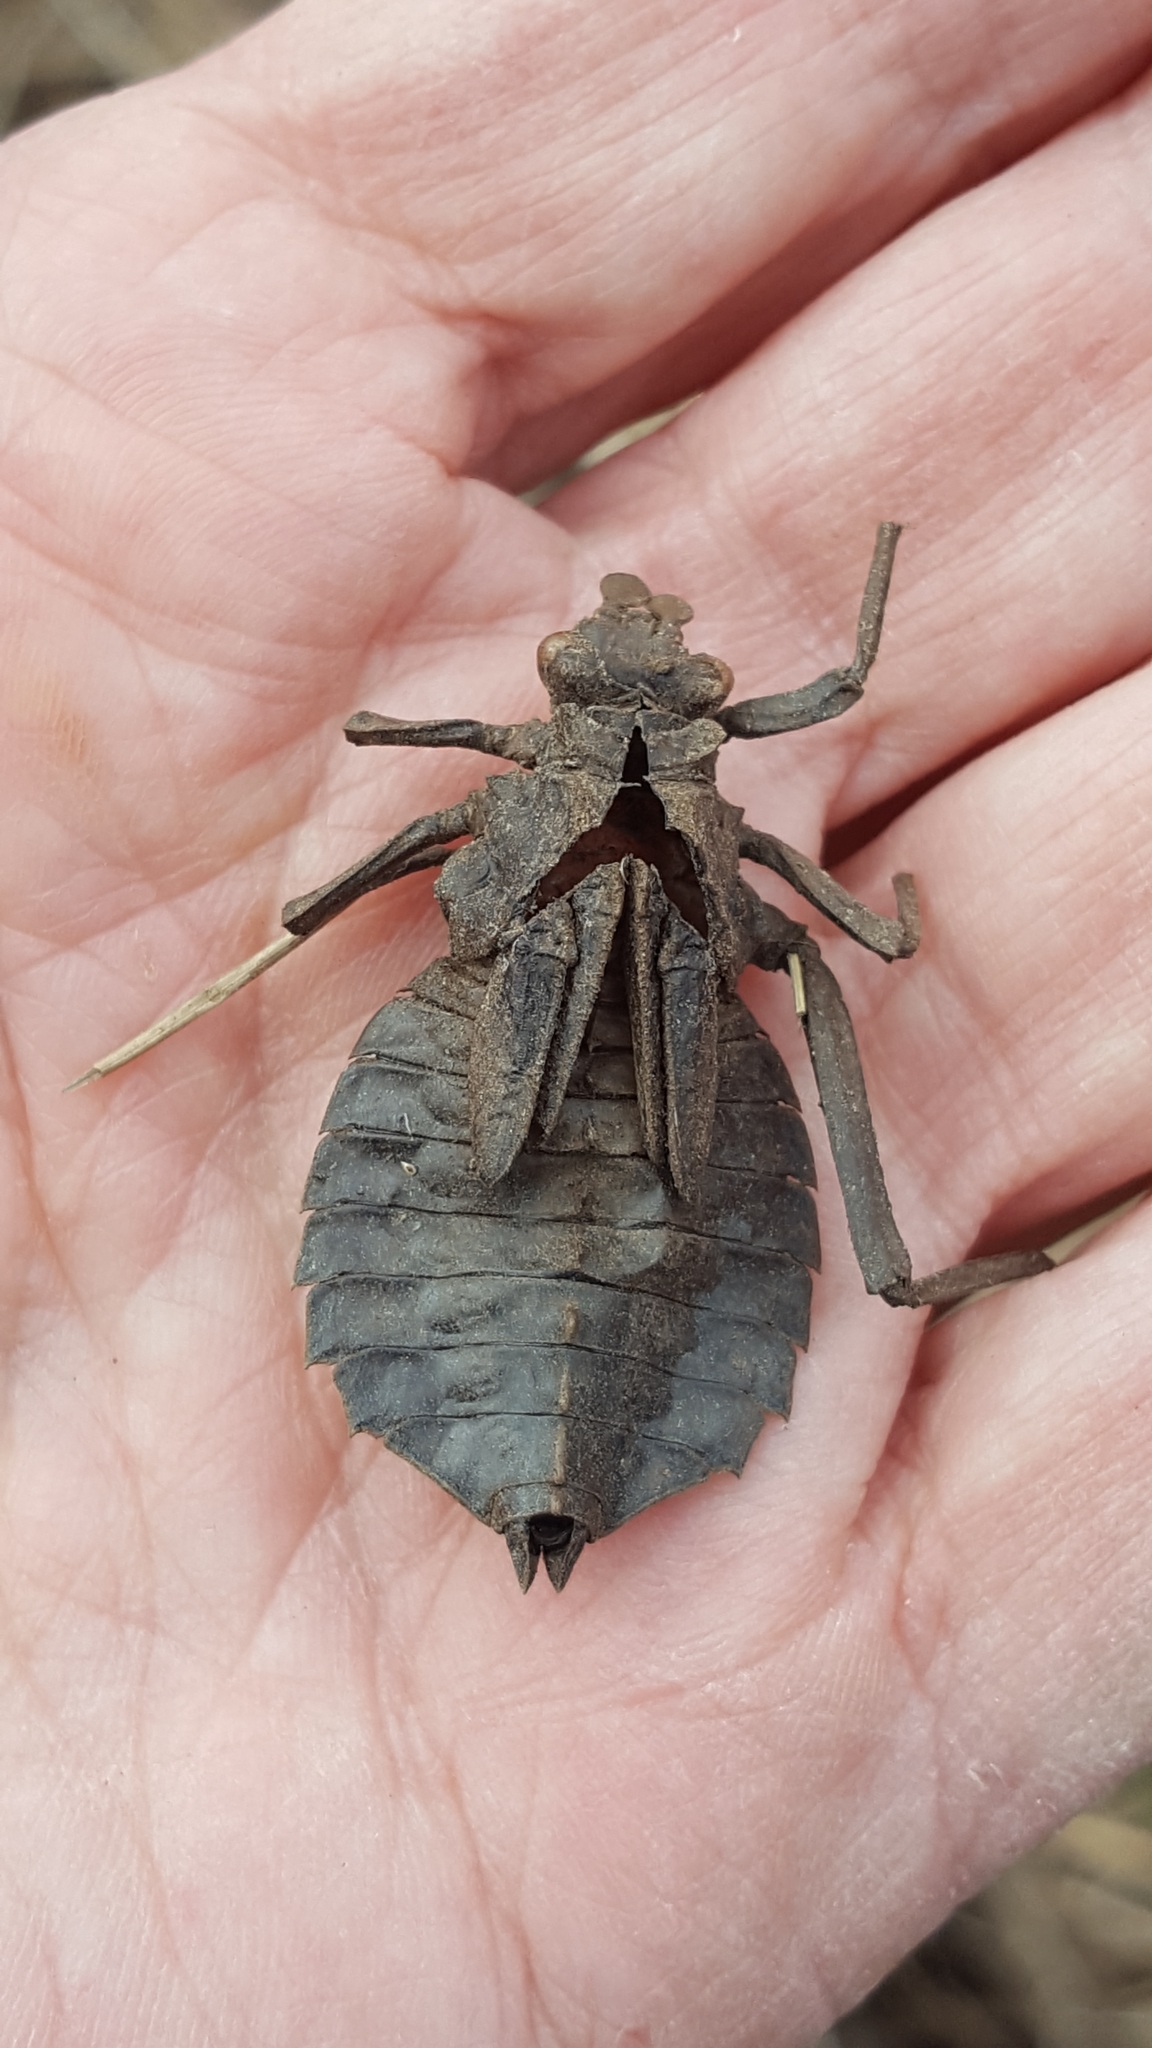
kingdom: Animalia
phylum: Arthropoda
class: Insecta
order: Odonata
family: Gomphidae
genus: Hagenius
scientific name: Hagenius brevistylus
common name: Dragonhunter
